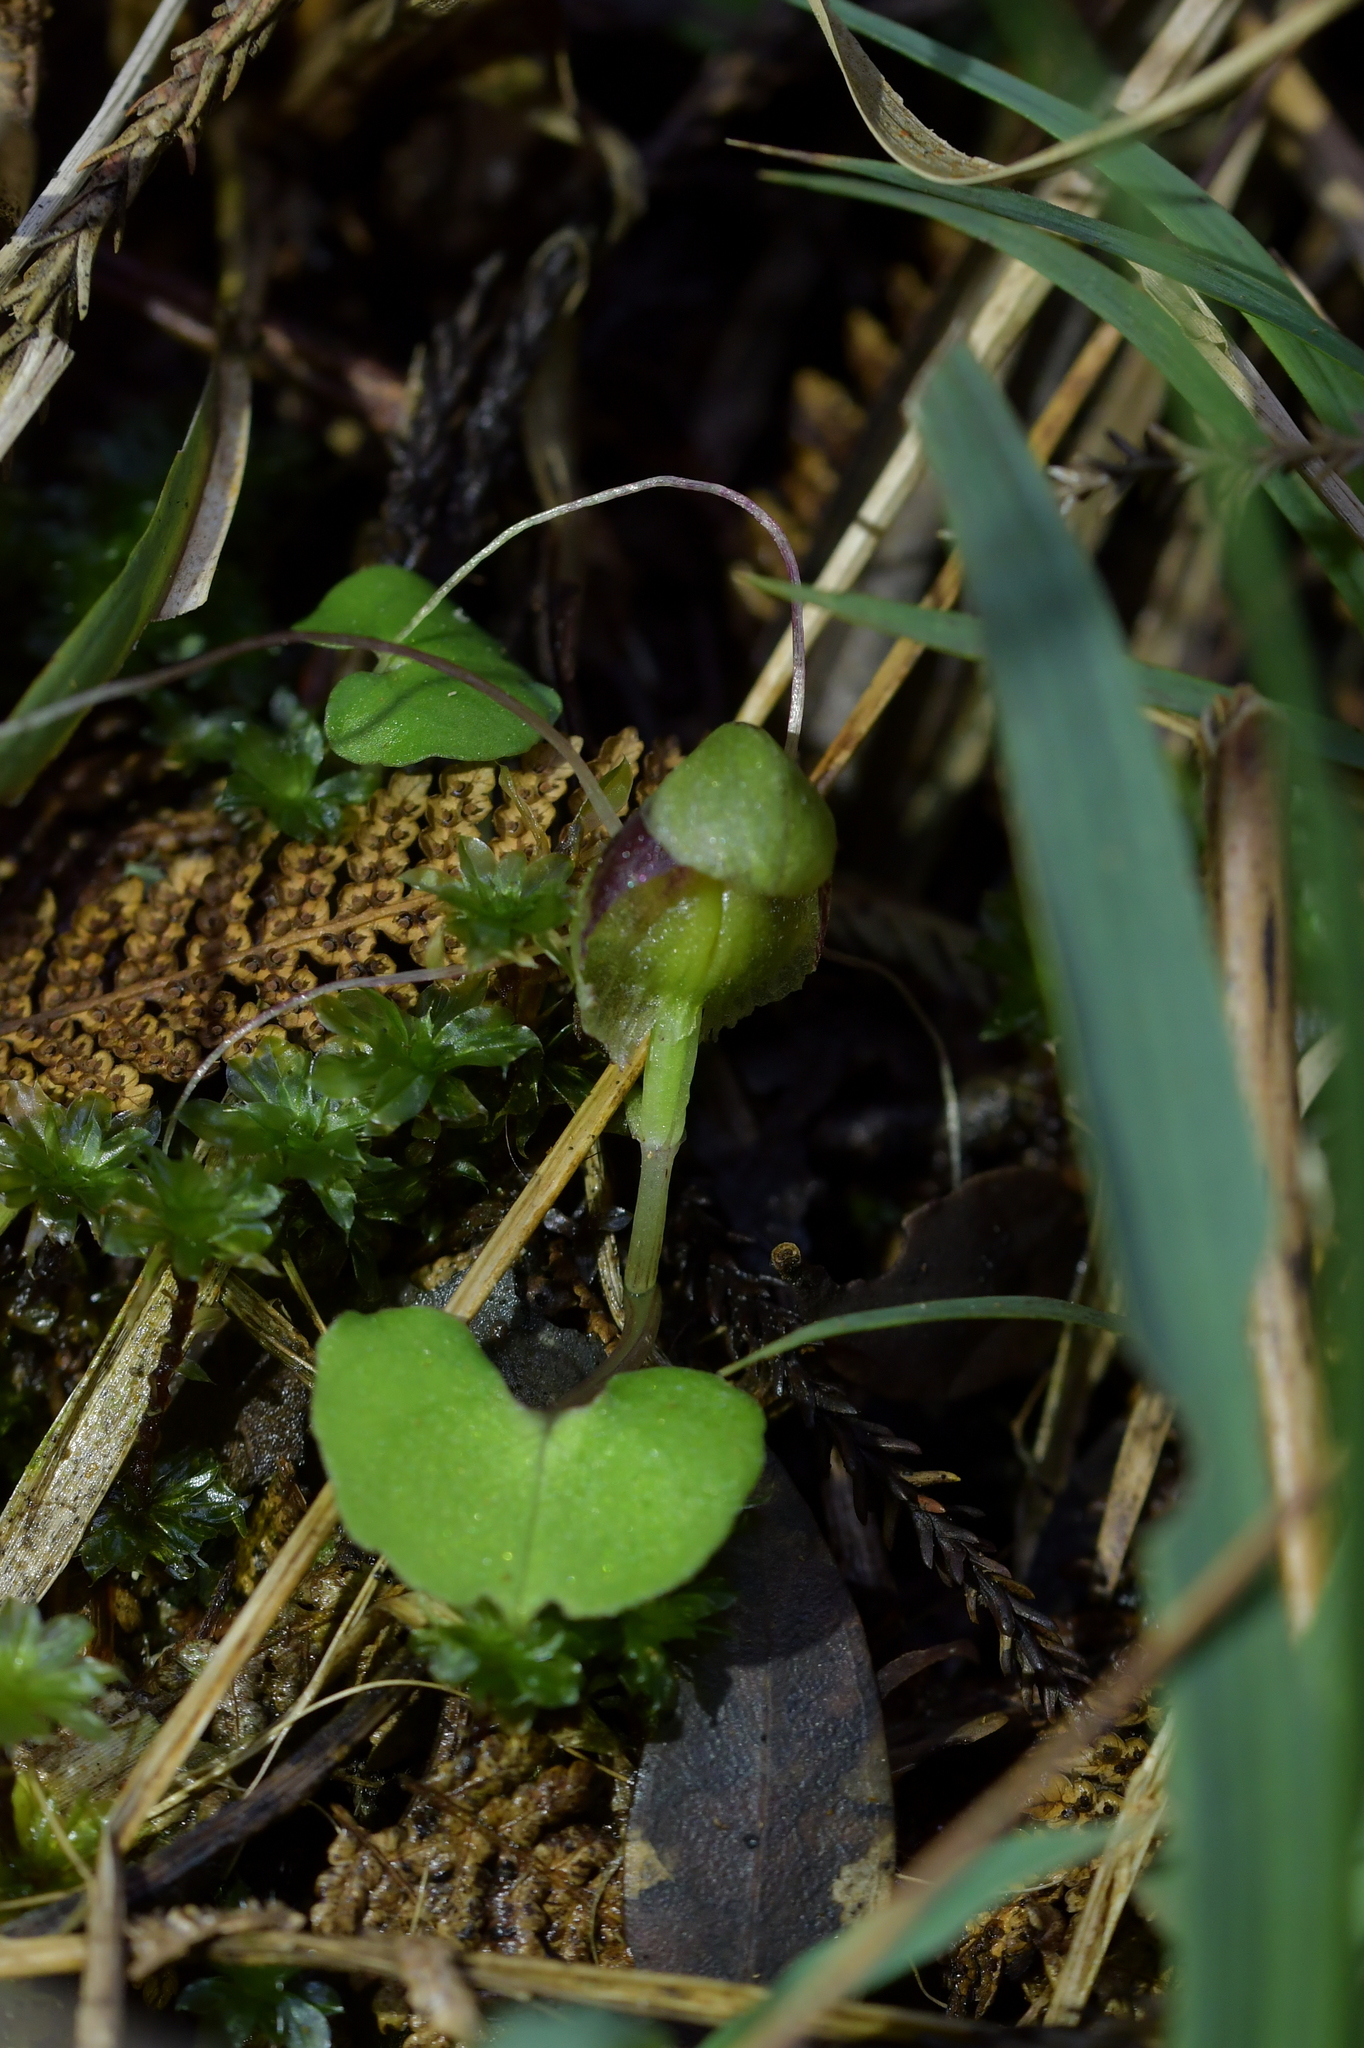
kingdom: Plantae
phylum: Tracheophyta
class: Liliopsida
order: Asparagales
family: Orchidaceae
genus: Corybas
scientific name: Corybas vitreus
